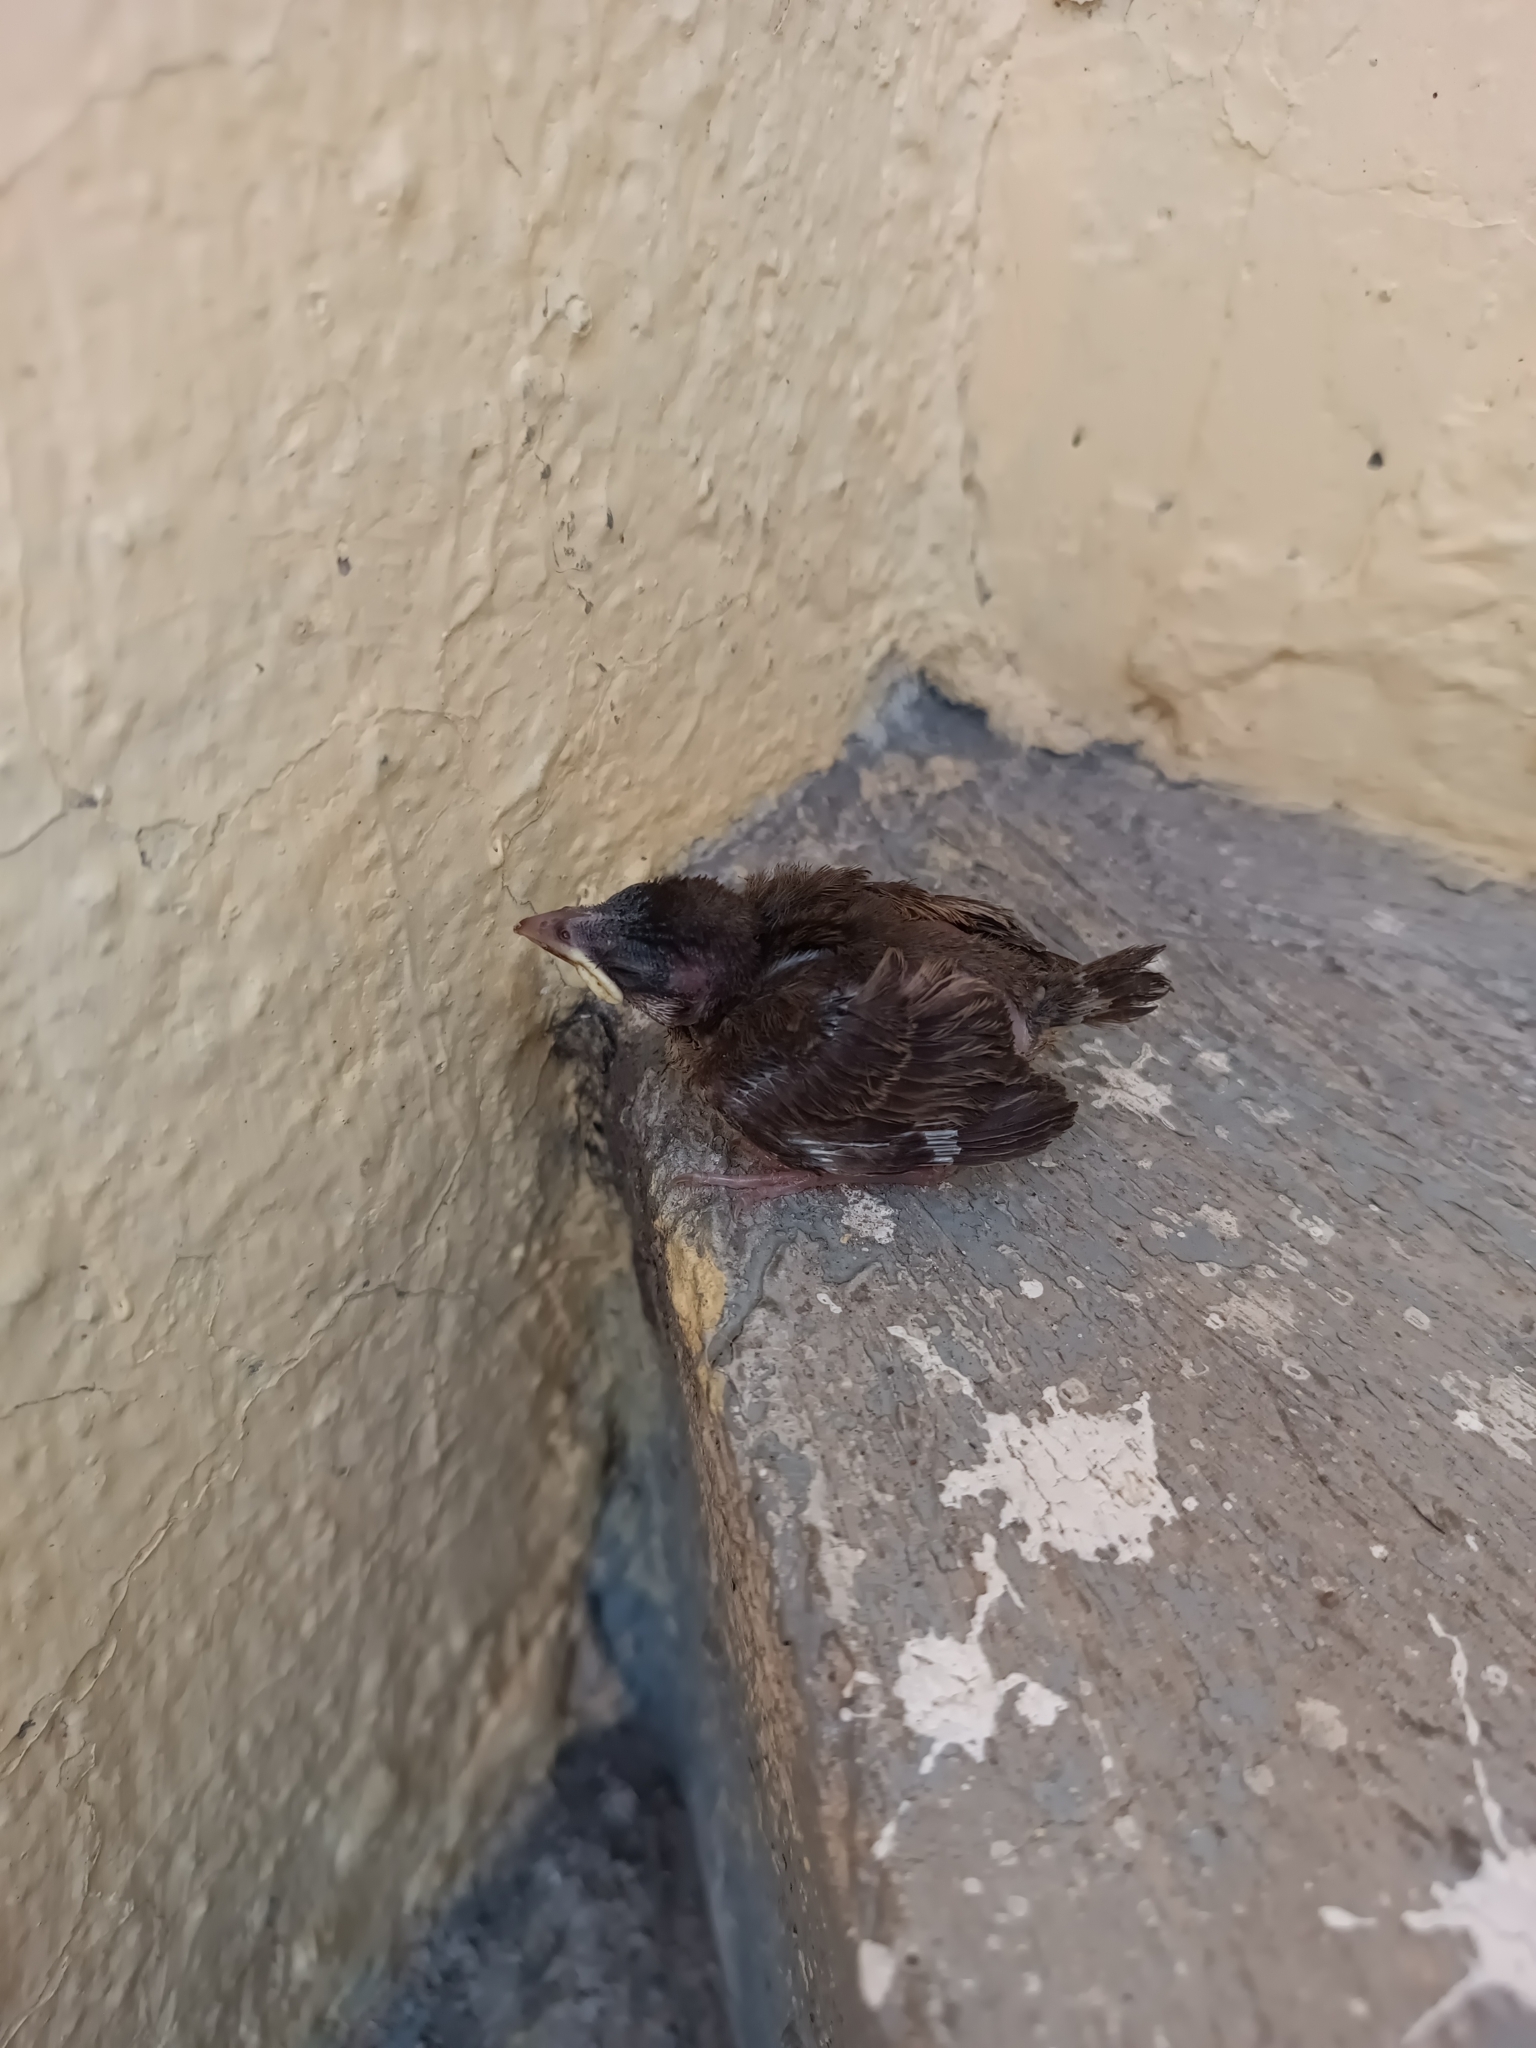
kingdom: Animalia
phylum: Chordata
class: Aves
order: Passeriformes
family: Passeridae
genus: Passer
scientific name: Passer domesticus
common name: House sparrow
